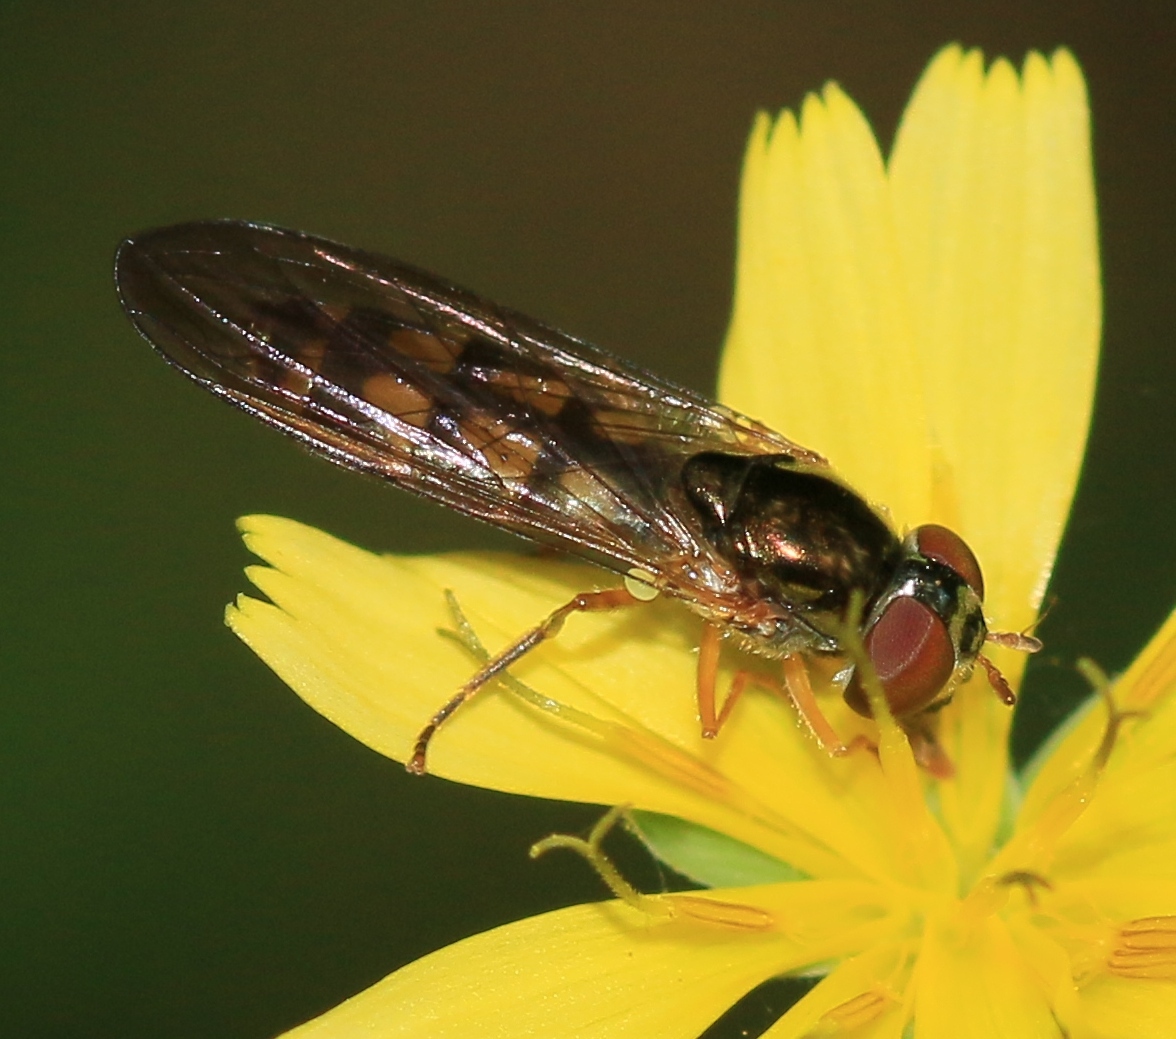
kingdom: Animalia
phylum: Arthropoda
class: Insecta
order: Diptera
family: Syrphidae
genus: Melanostoma
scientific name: Melanostoma scalare
